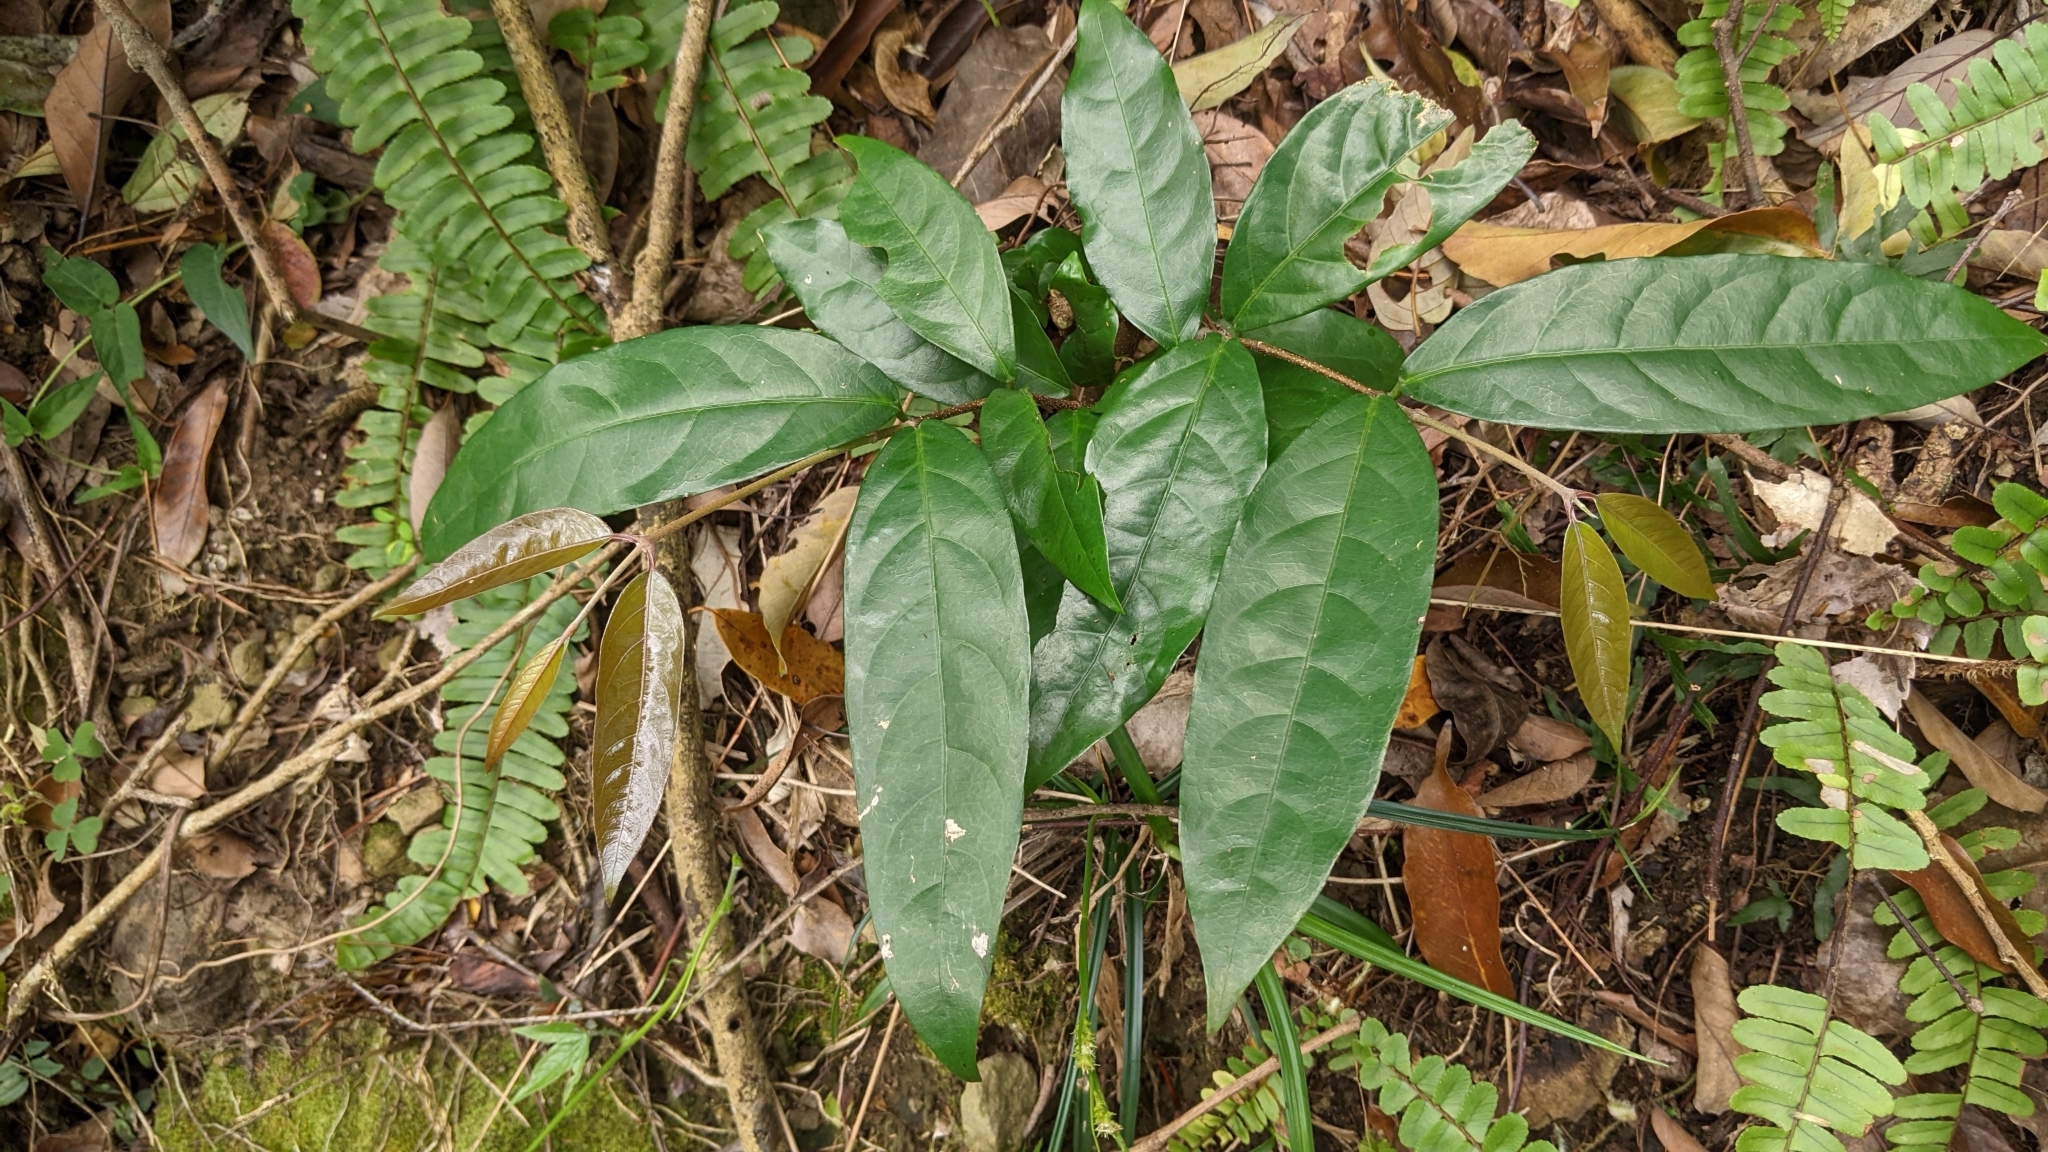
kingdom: Plantae
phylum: Tracheophyta
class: Magnoliopsida
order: Malpighiales
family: Malpighiaceae
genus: Hiptage
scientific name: Hiptage benghalensis
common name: Hiptage
